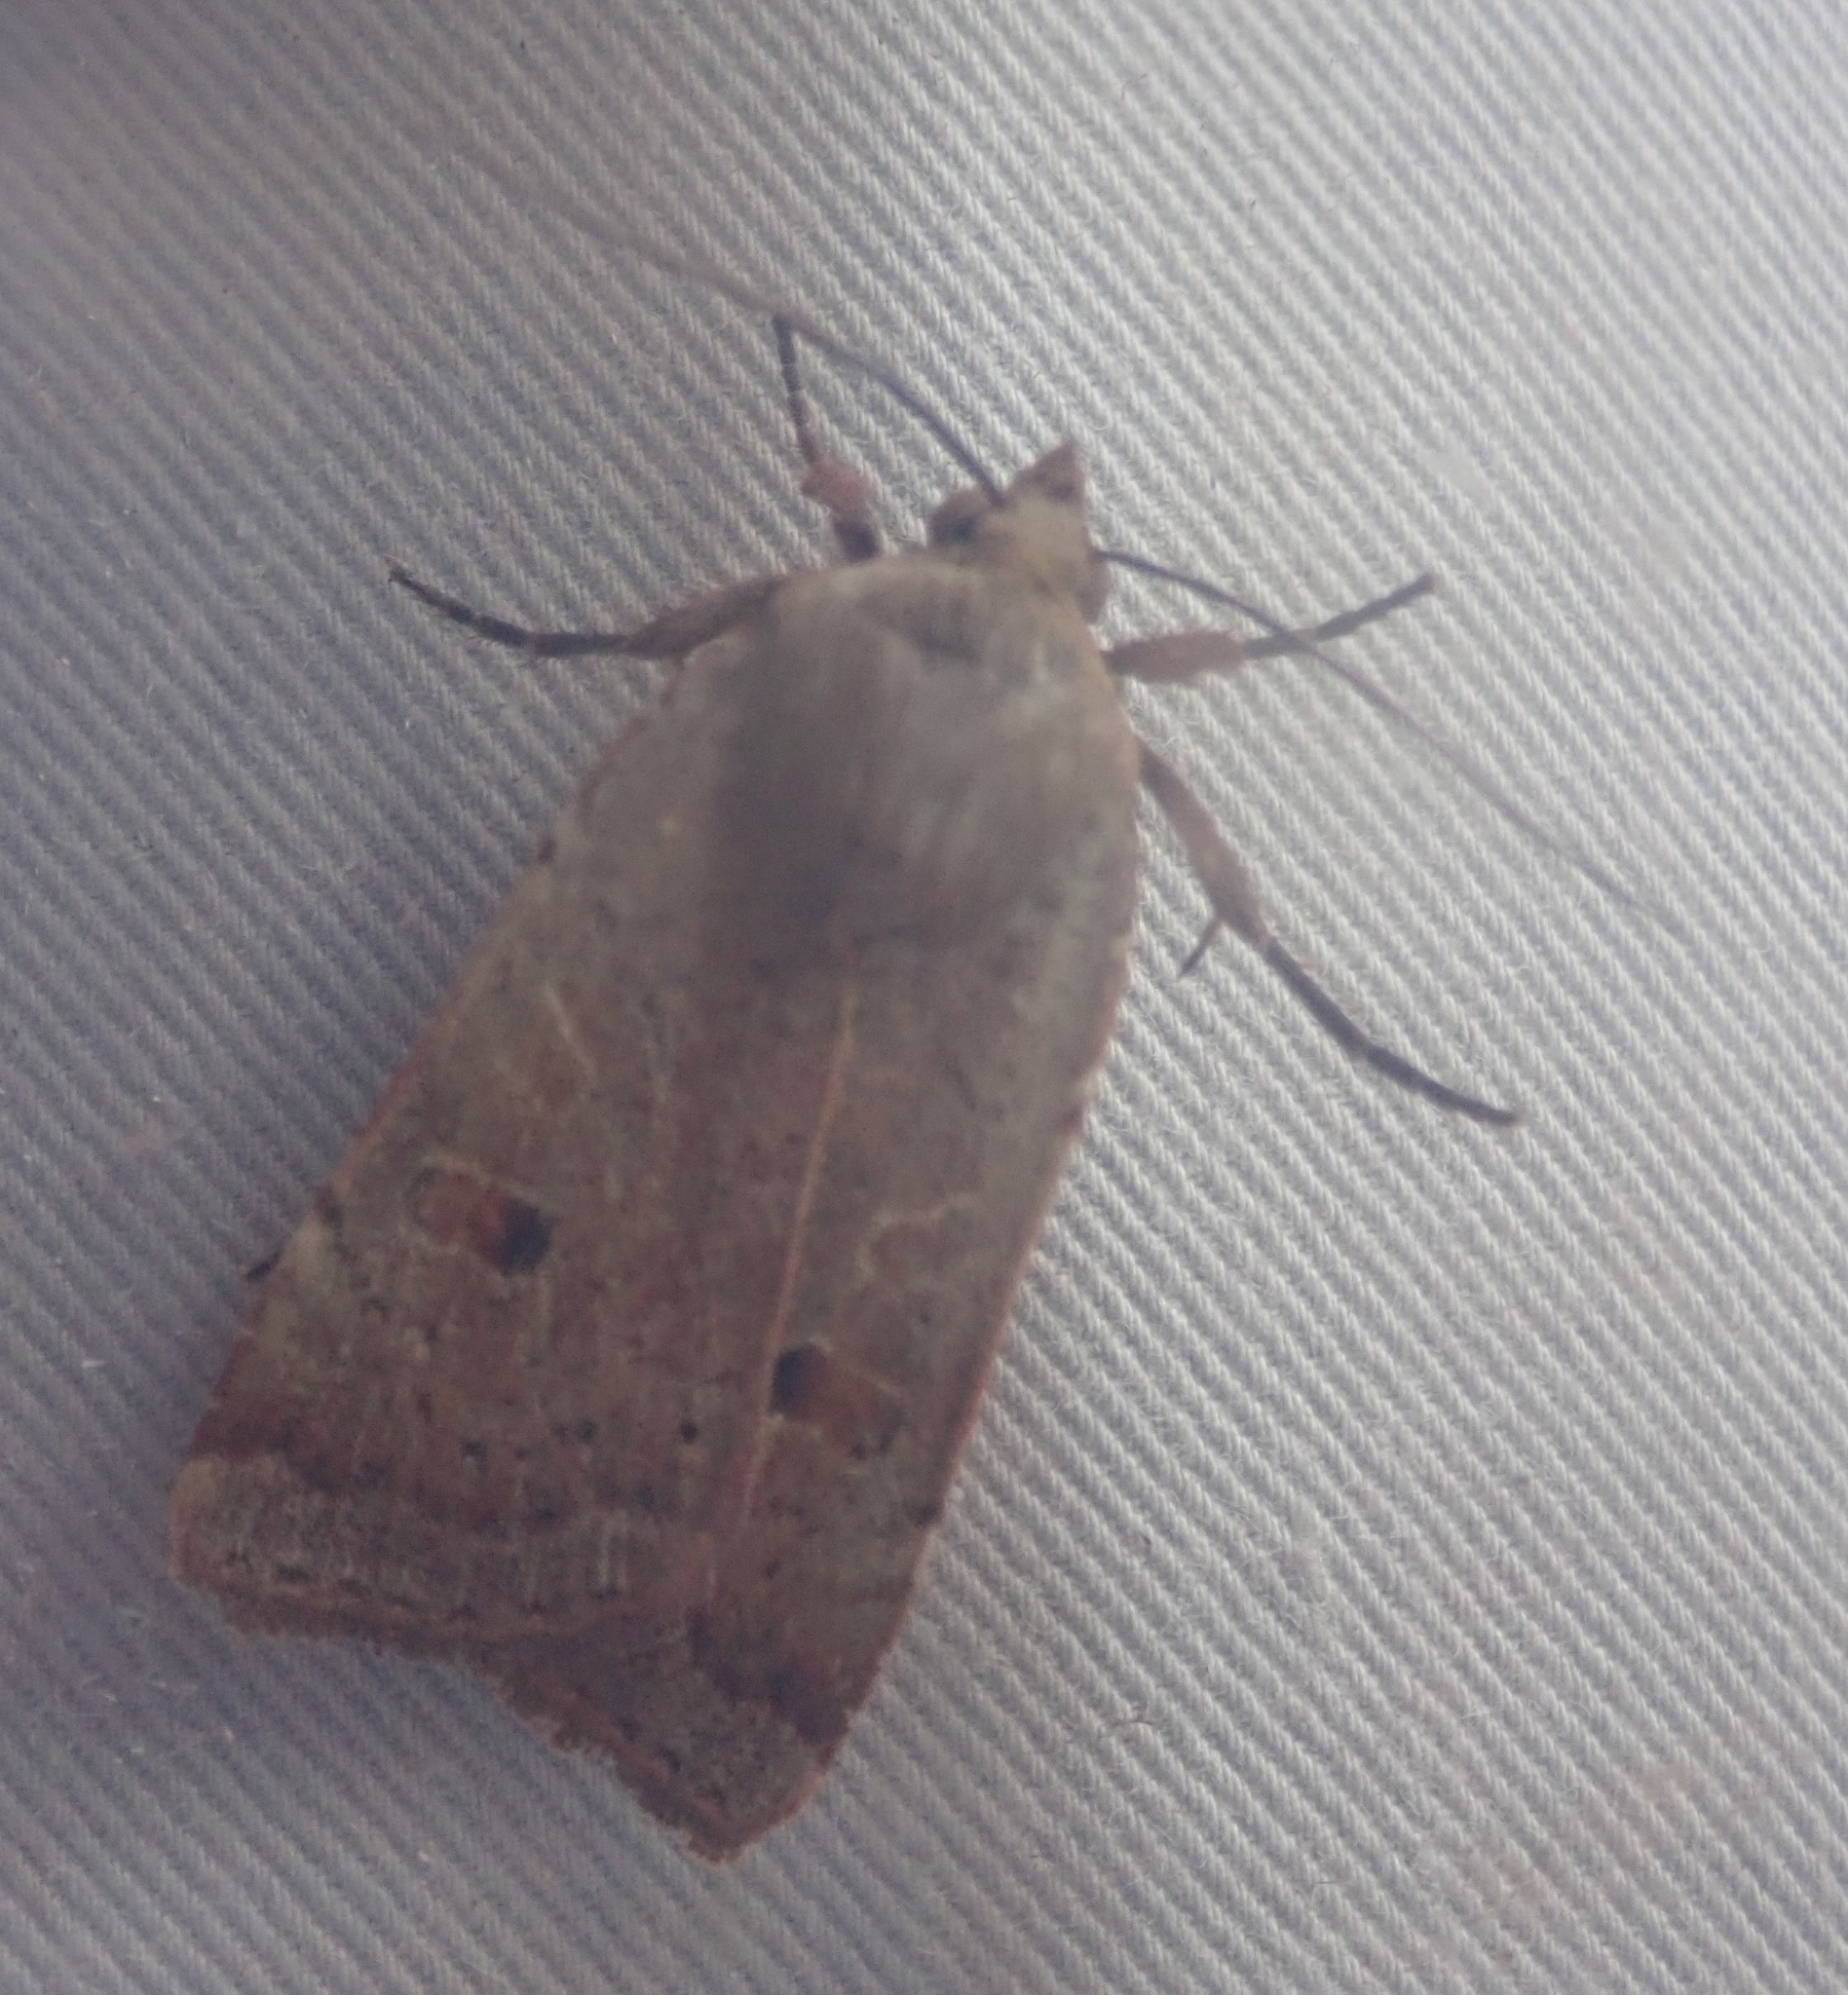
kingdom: Animalia
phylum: Arthropoda
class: Insecta
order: Lepidoptera
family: Noctuidae
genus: Noctua
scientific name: Noctua comes
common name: Lesser yellow underwing
